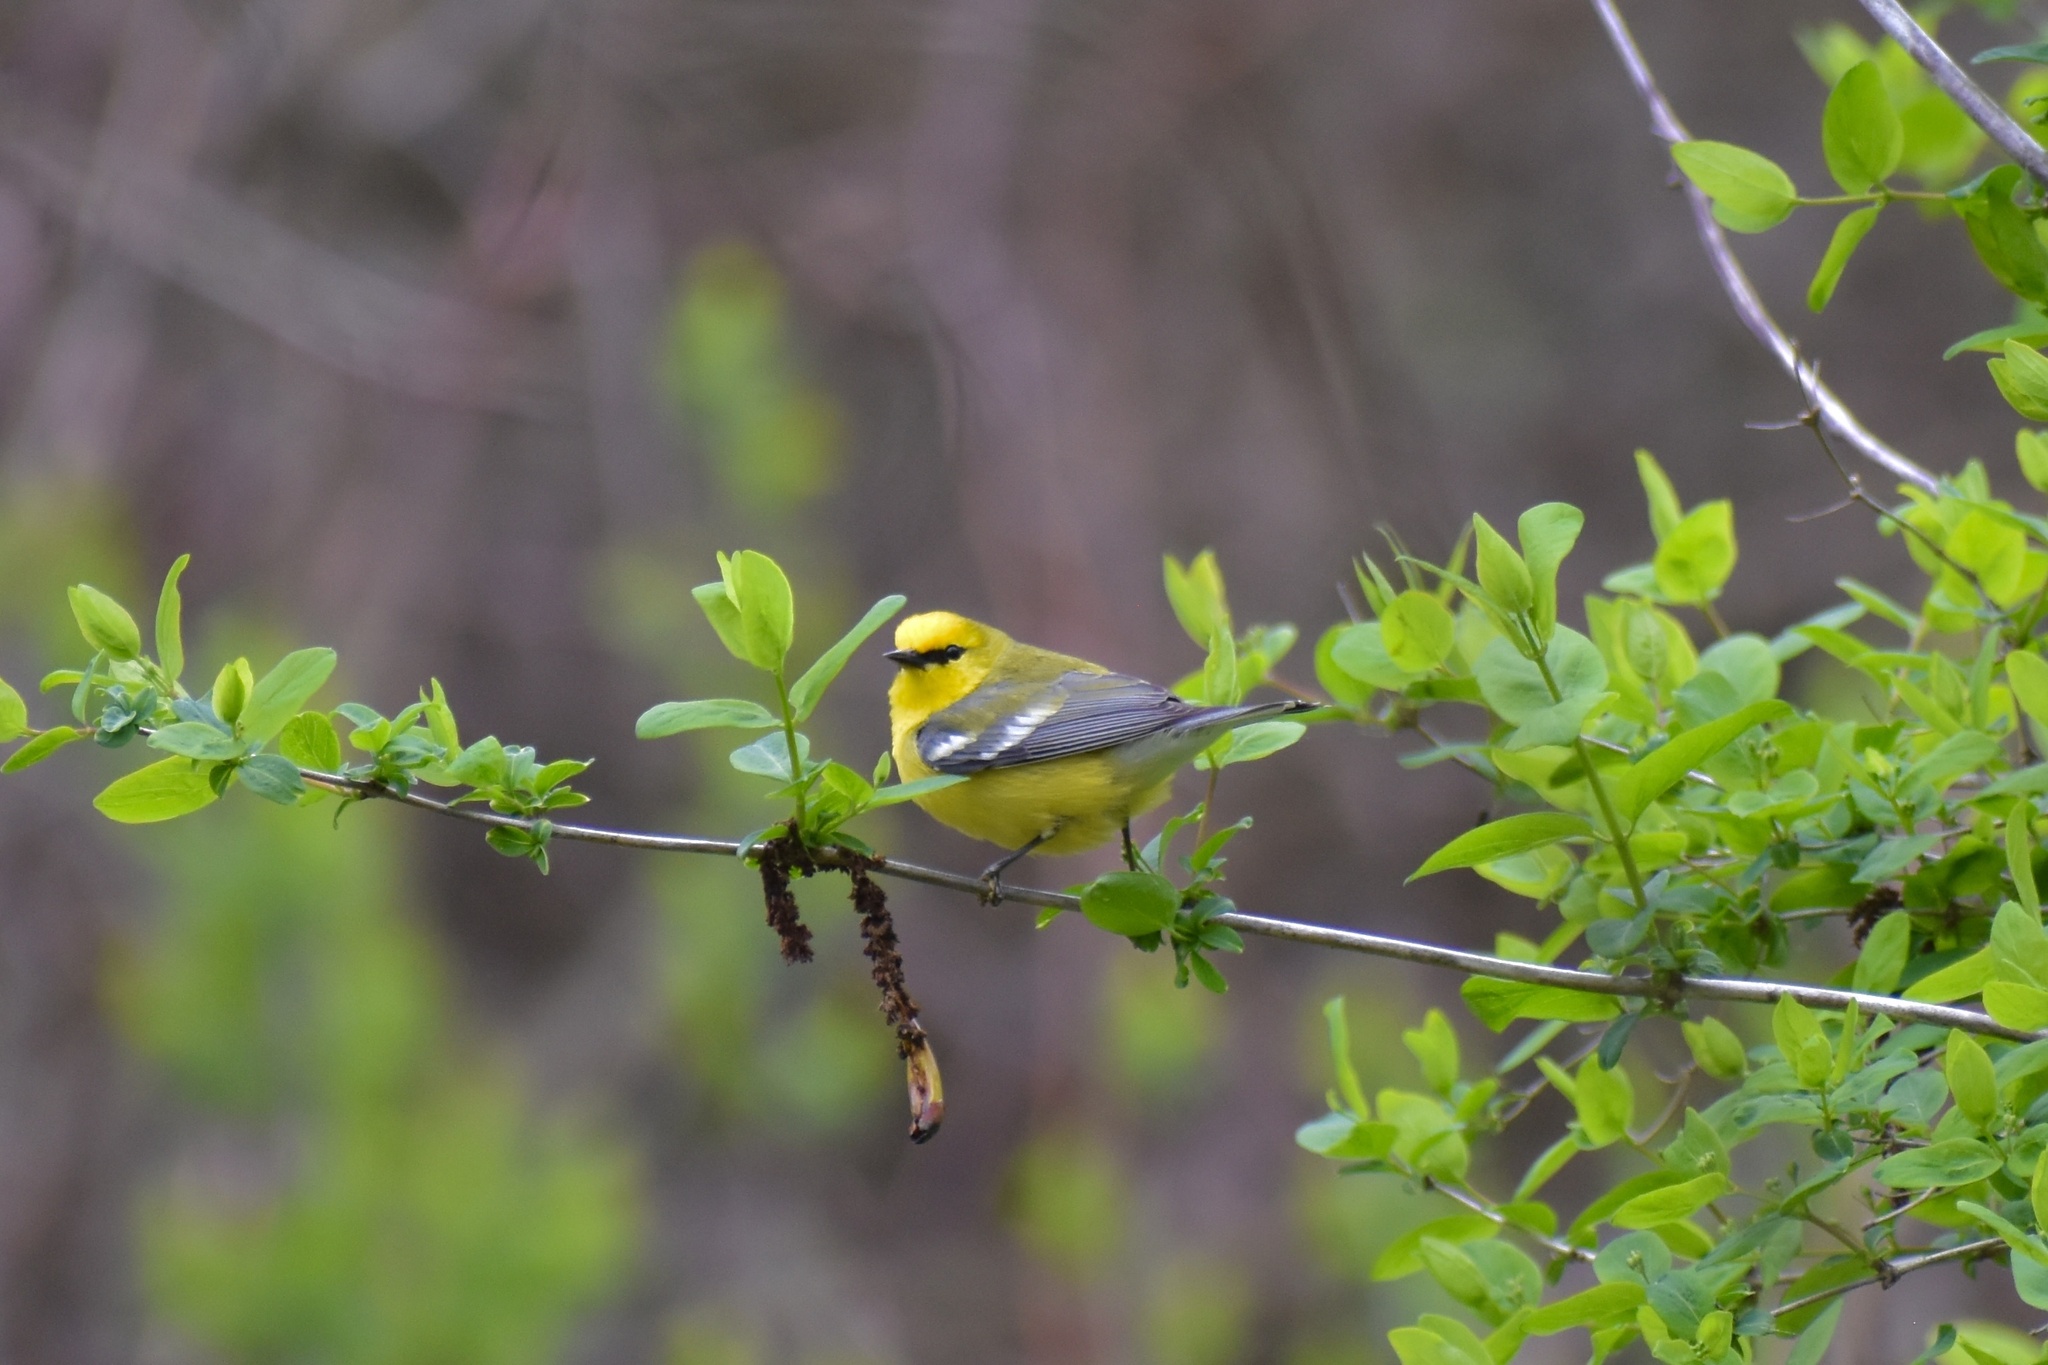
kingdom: Animalia
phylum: Chordata
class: Aves
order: Passeriformes
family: Parulidae
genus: Vermivora
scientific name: Vermivora cyanoptera
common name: Blue-winged warbler
